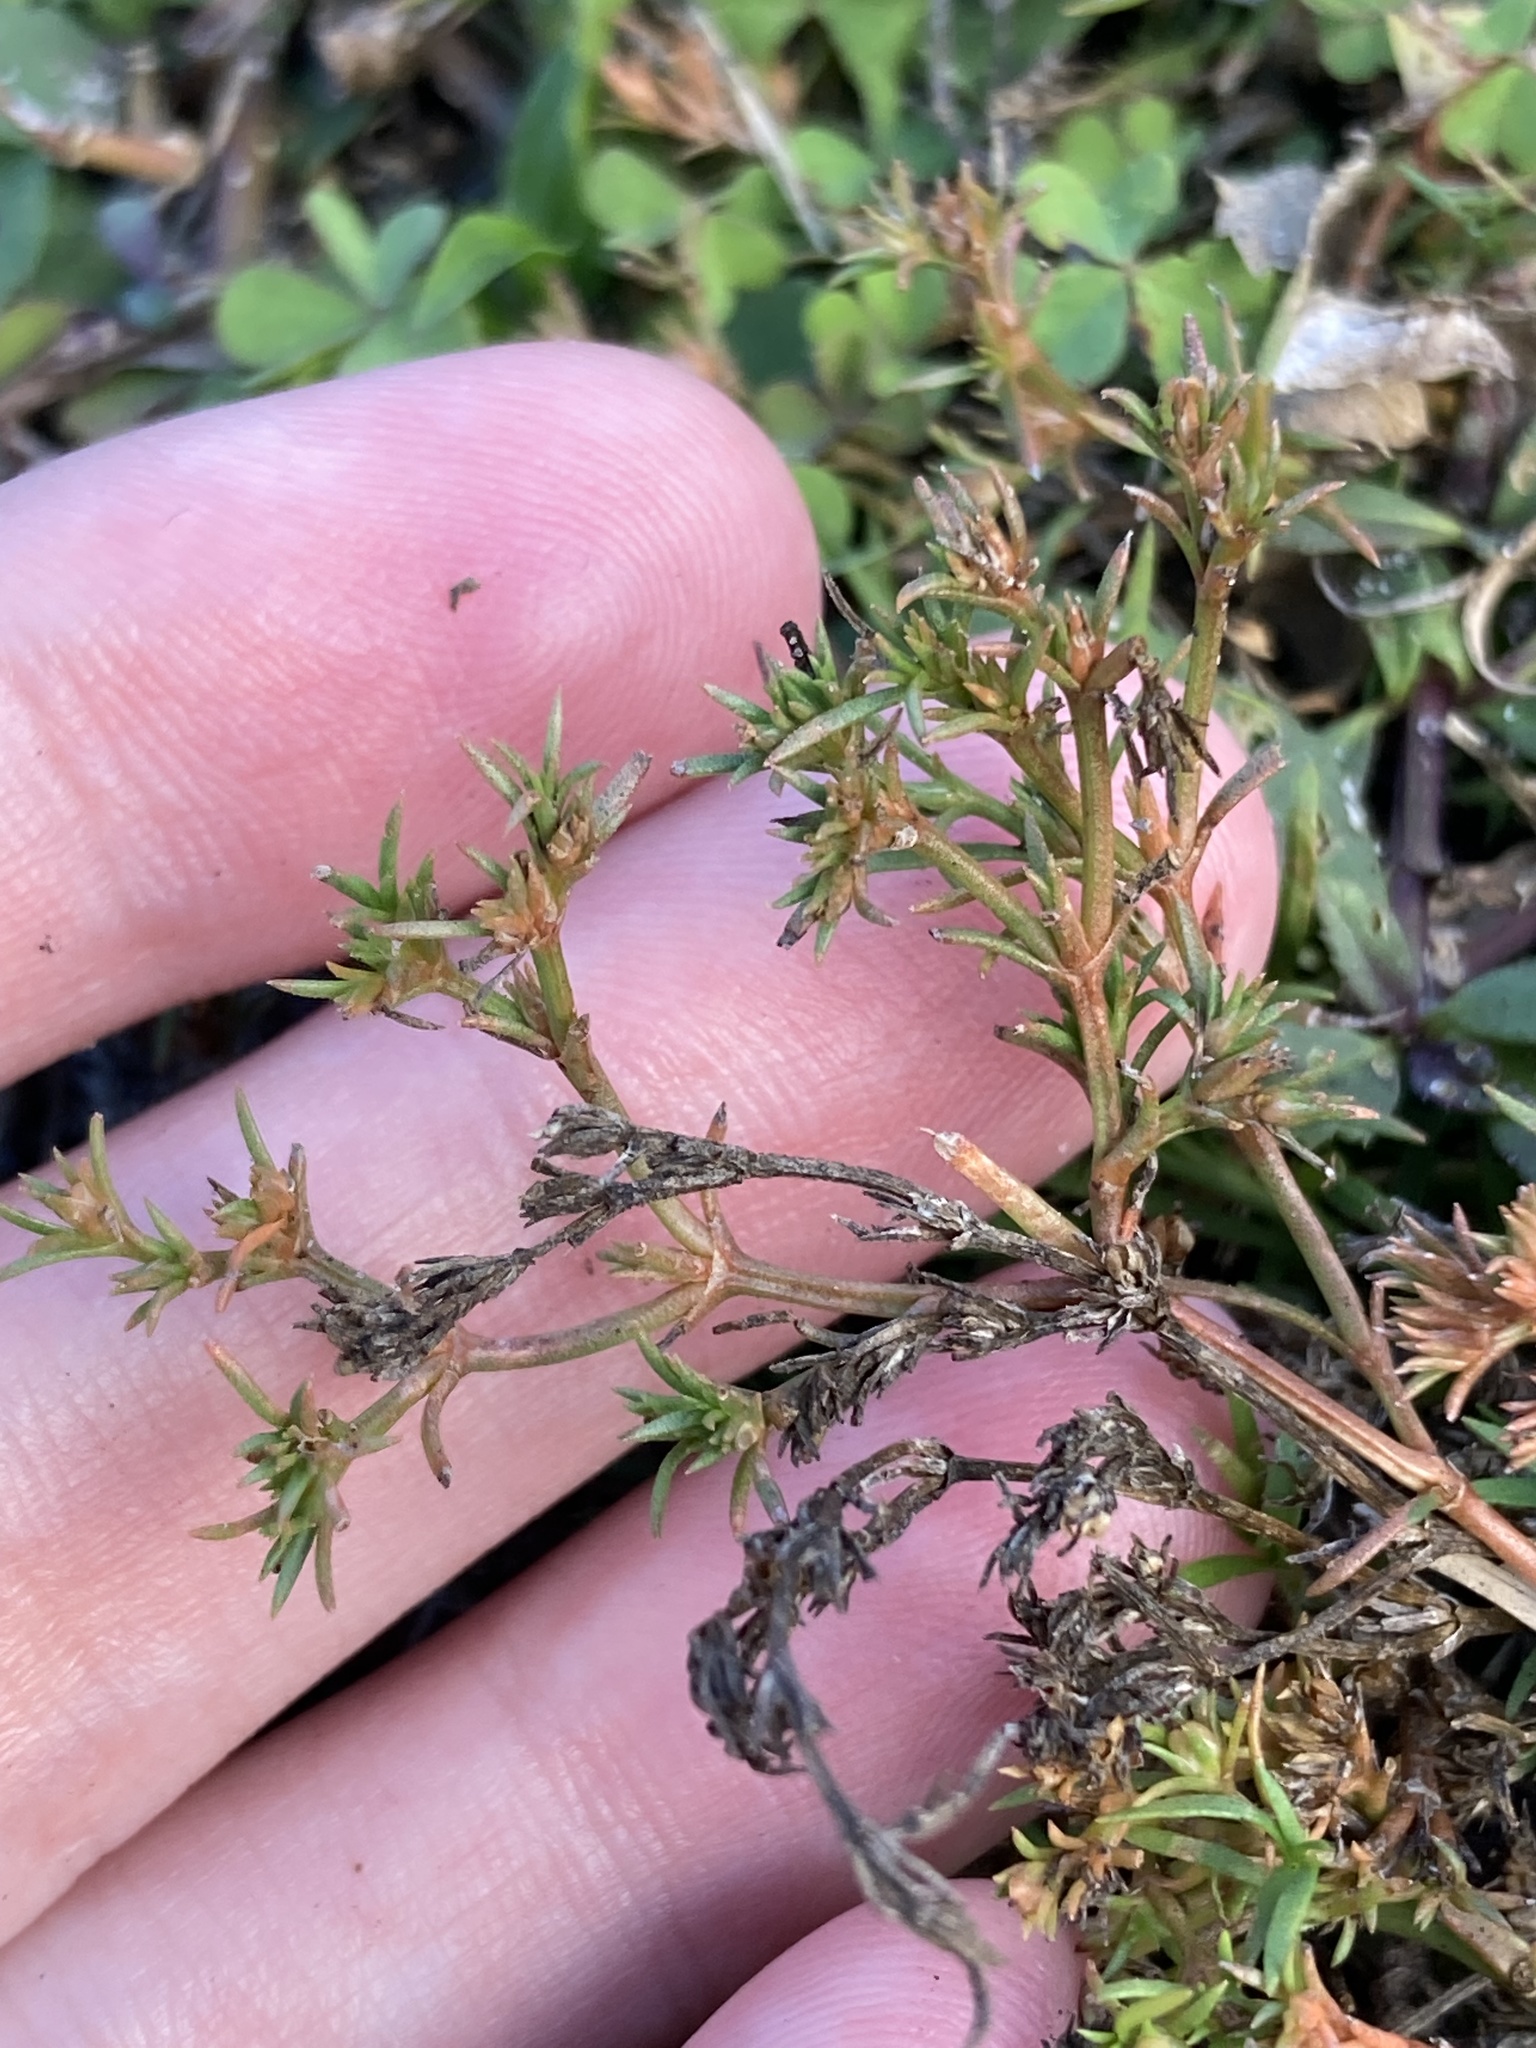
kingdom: Plantae
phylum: Tracheophyta
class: Magnoliopsida
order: Lamiales
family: Tetrachondraceae
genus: Polypremum
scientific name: Polypremum procumbens
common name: Juniper-leaf
